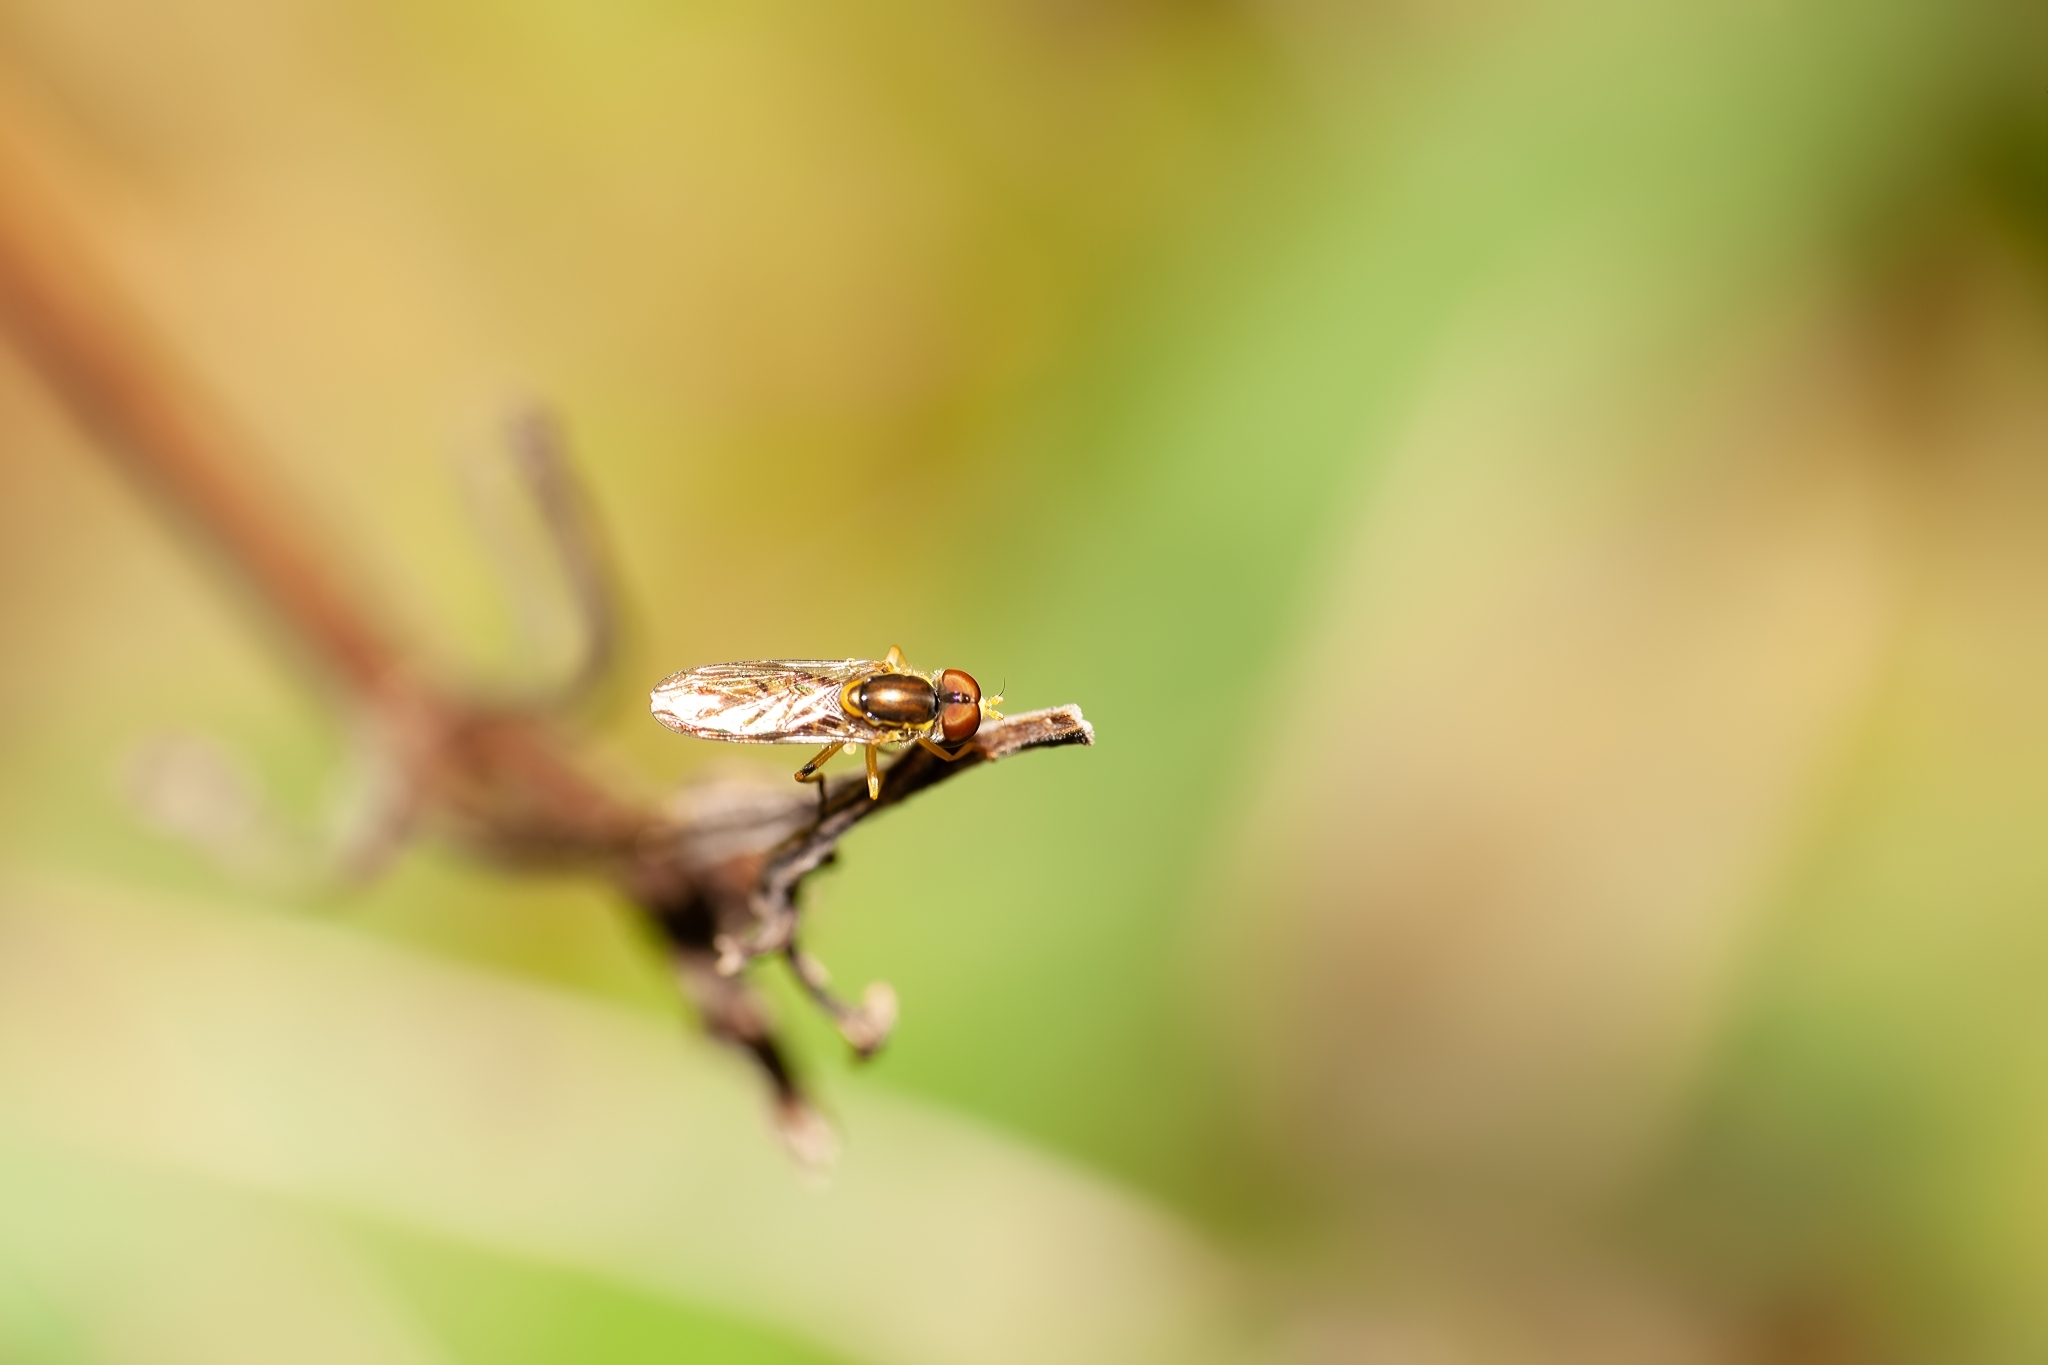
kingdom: Animalia
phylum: Arthropoda
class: Insecta
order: Diptera
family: Syrphidae
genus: Toxomerus
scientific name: Toxomerus floralis
